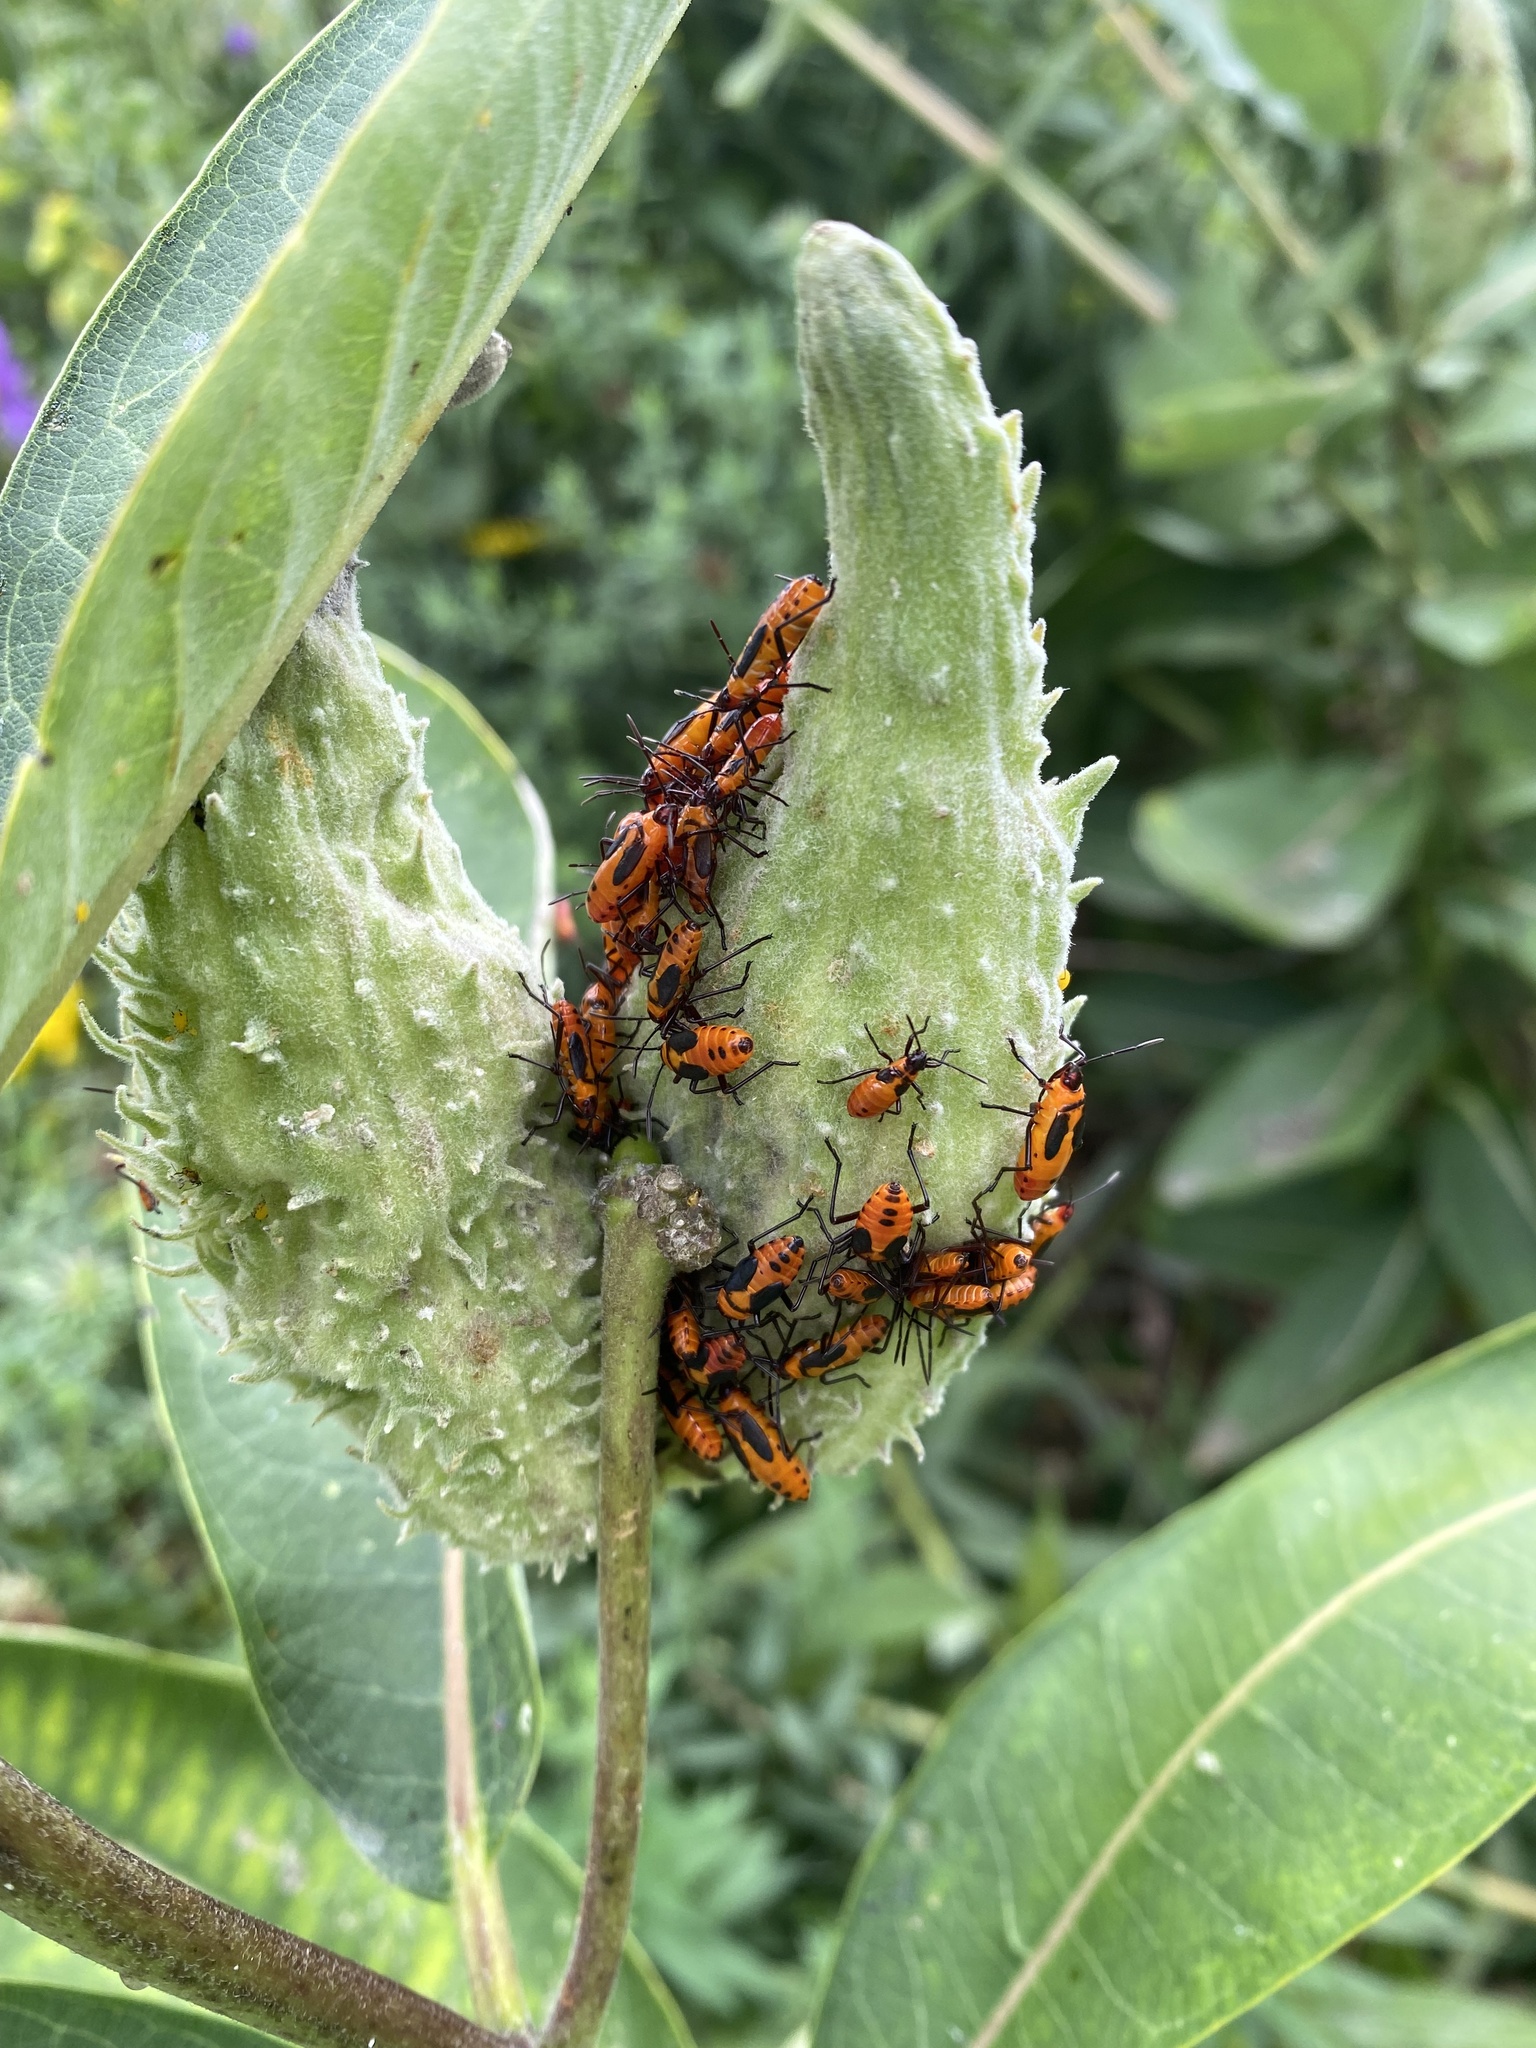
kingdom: Animalia
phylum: Arthropoda
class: Insecta
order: Hemiptera
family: Lygaeidae
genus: Oncopeltus
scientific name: Oncopeltus fasciatus
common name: Large milkweed bug
